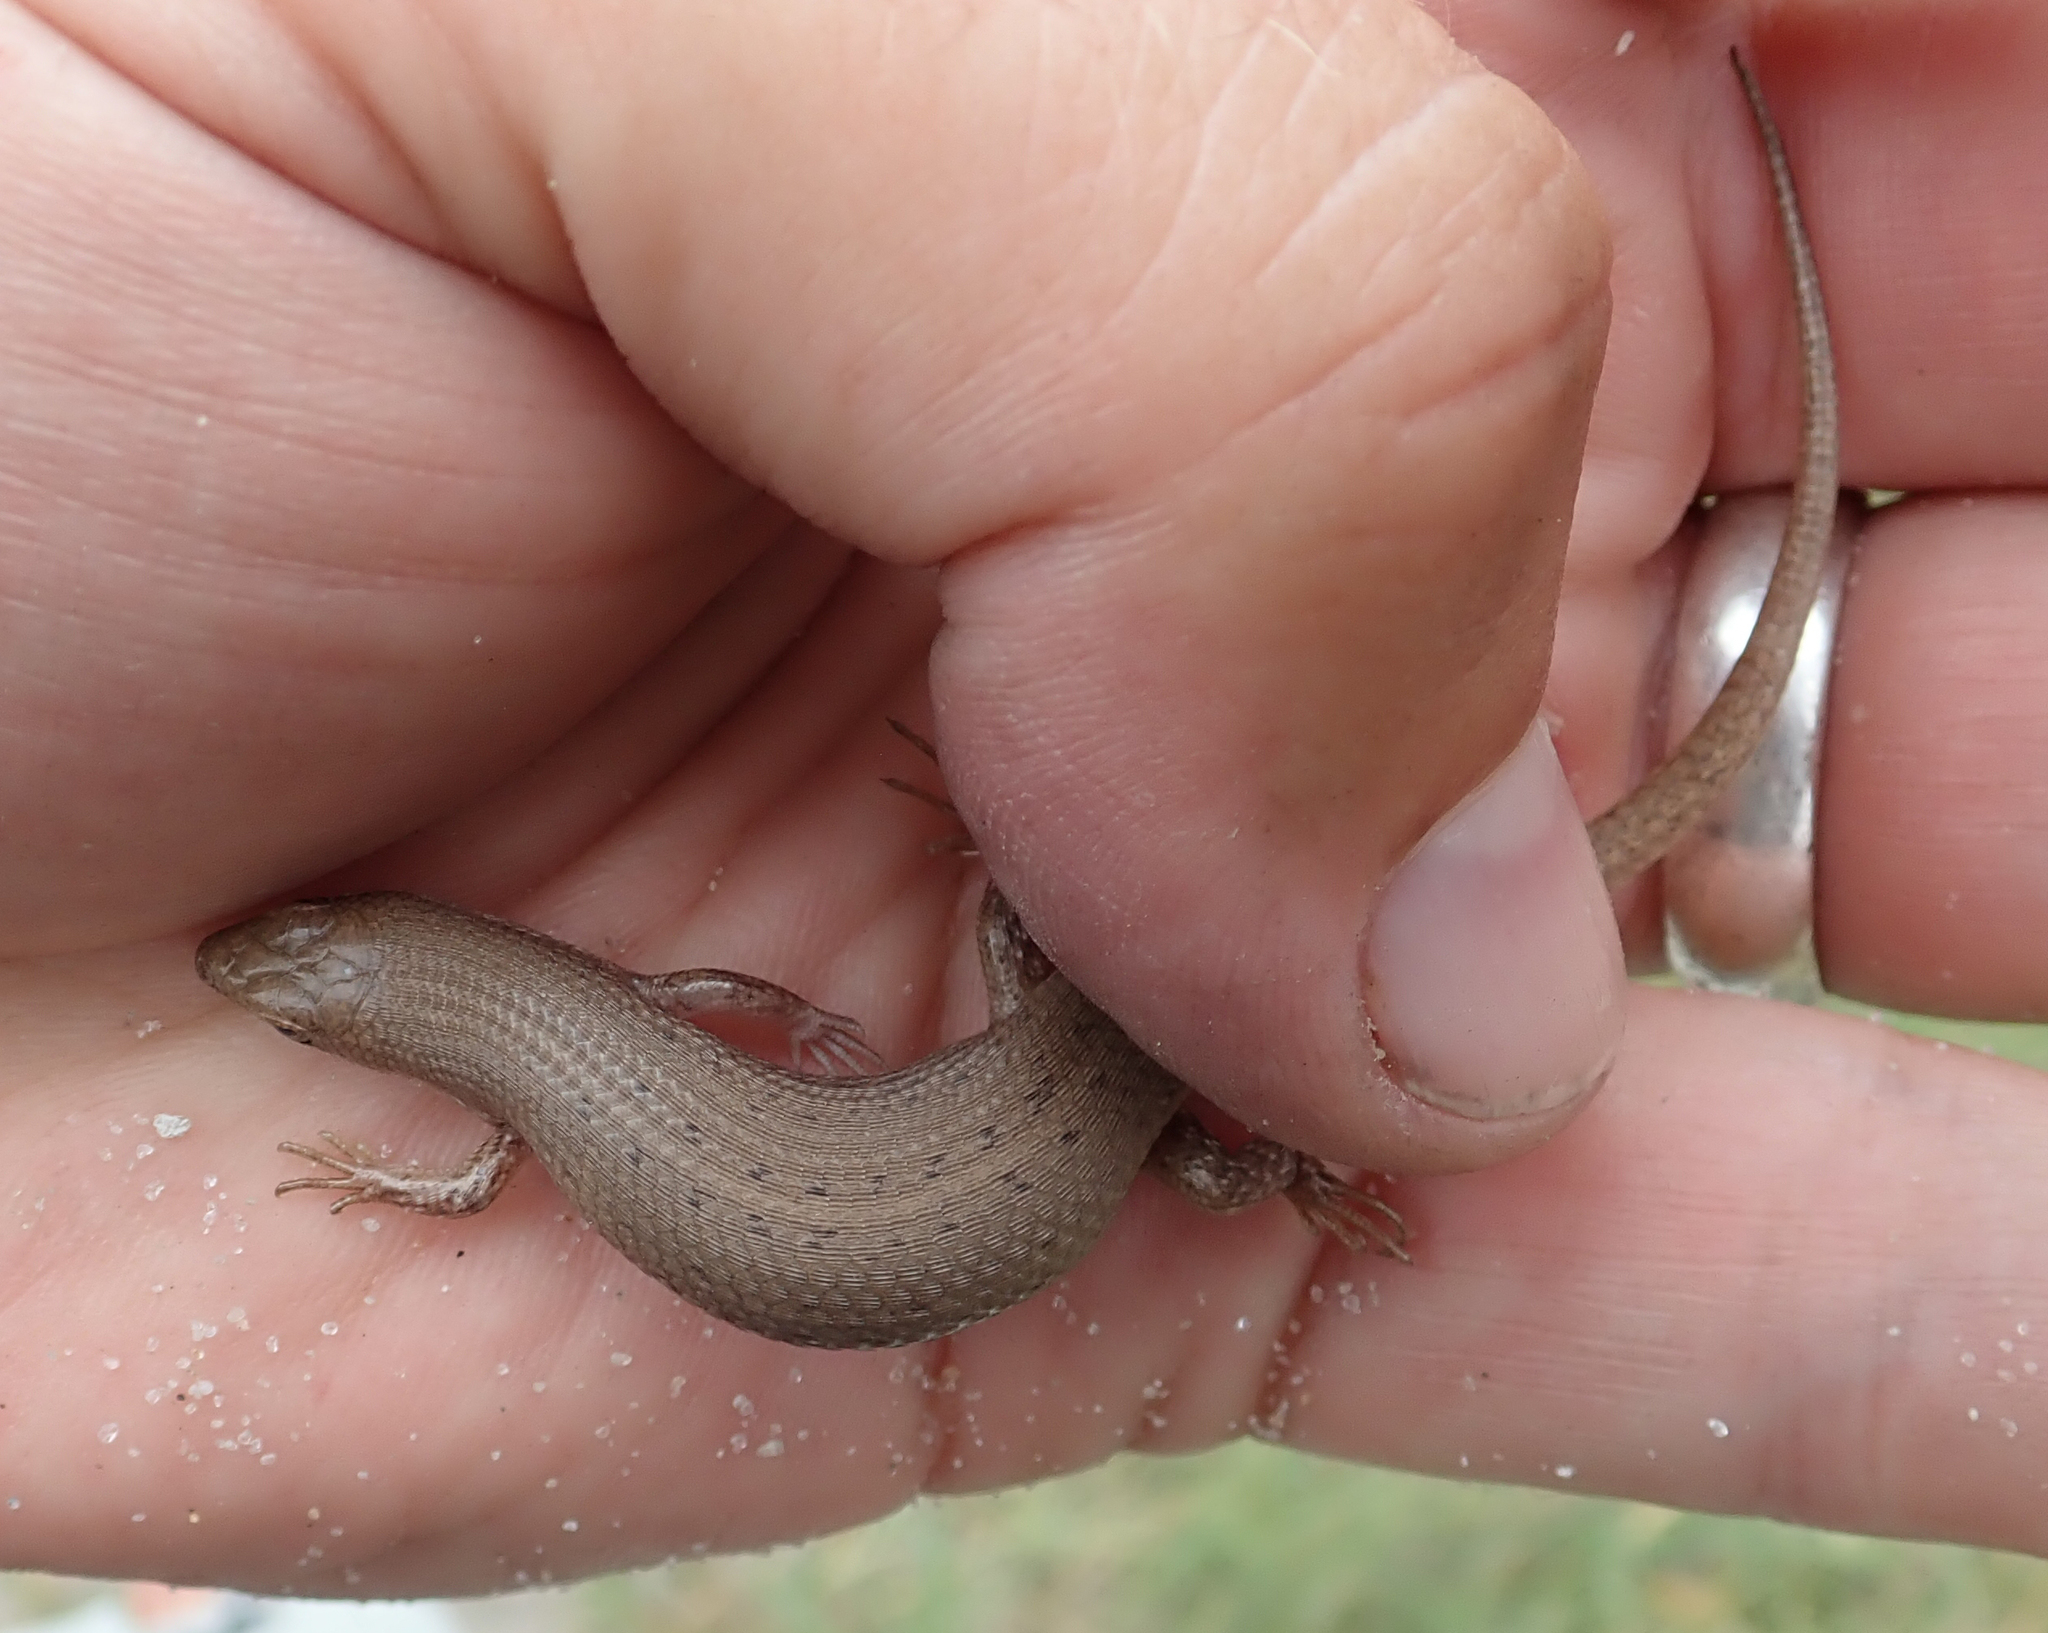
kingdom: Animalia
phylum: Chordata
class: Squamata
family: Scincidae
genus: Trachylepis
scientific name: Trachylepis punctulata
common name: Speckled sand skink
